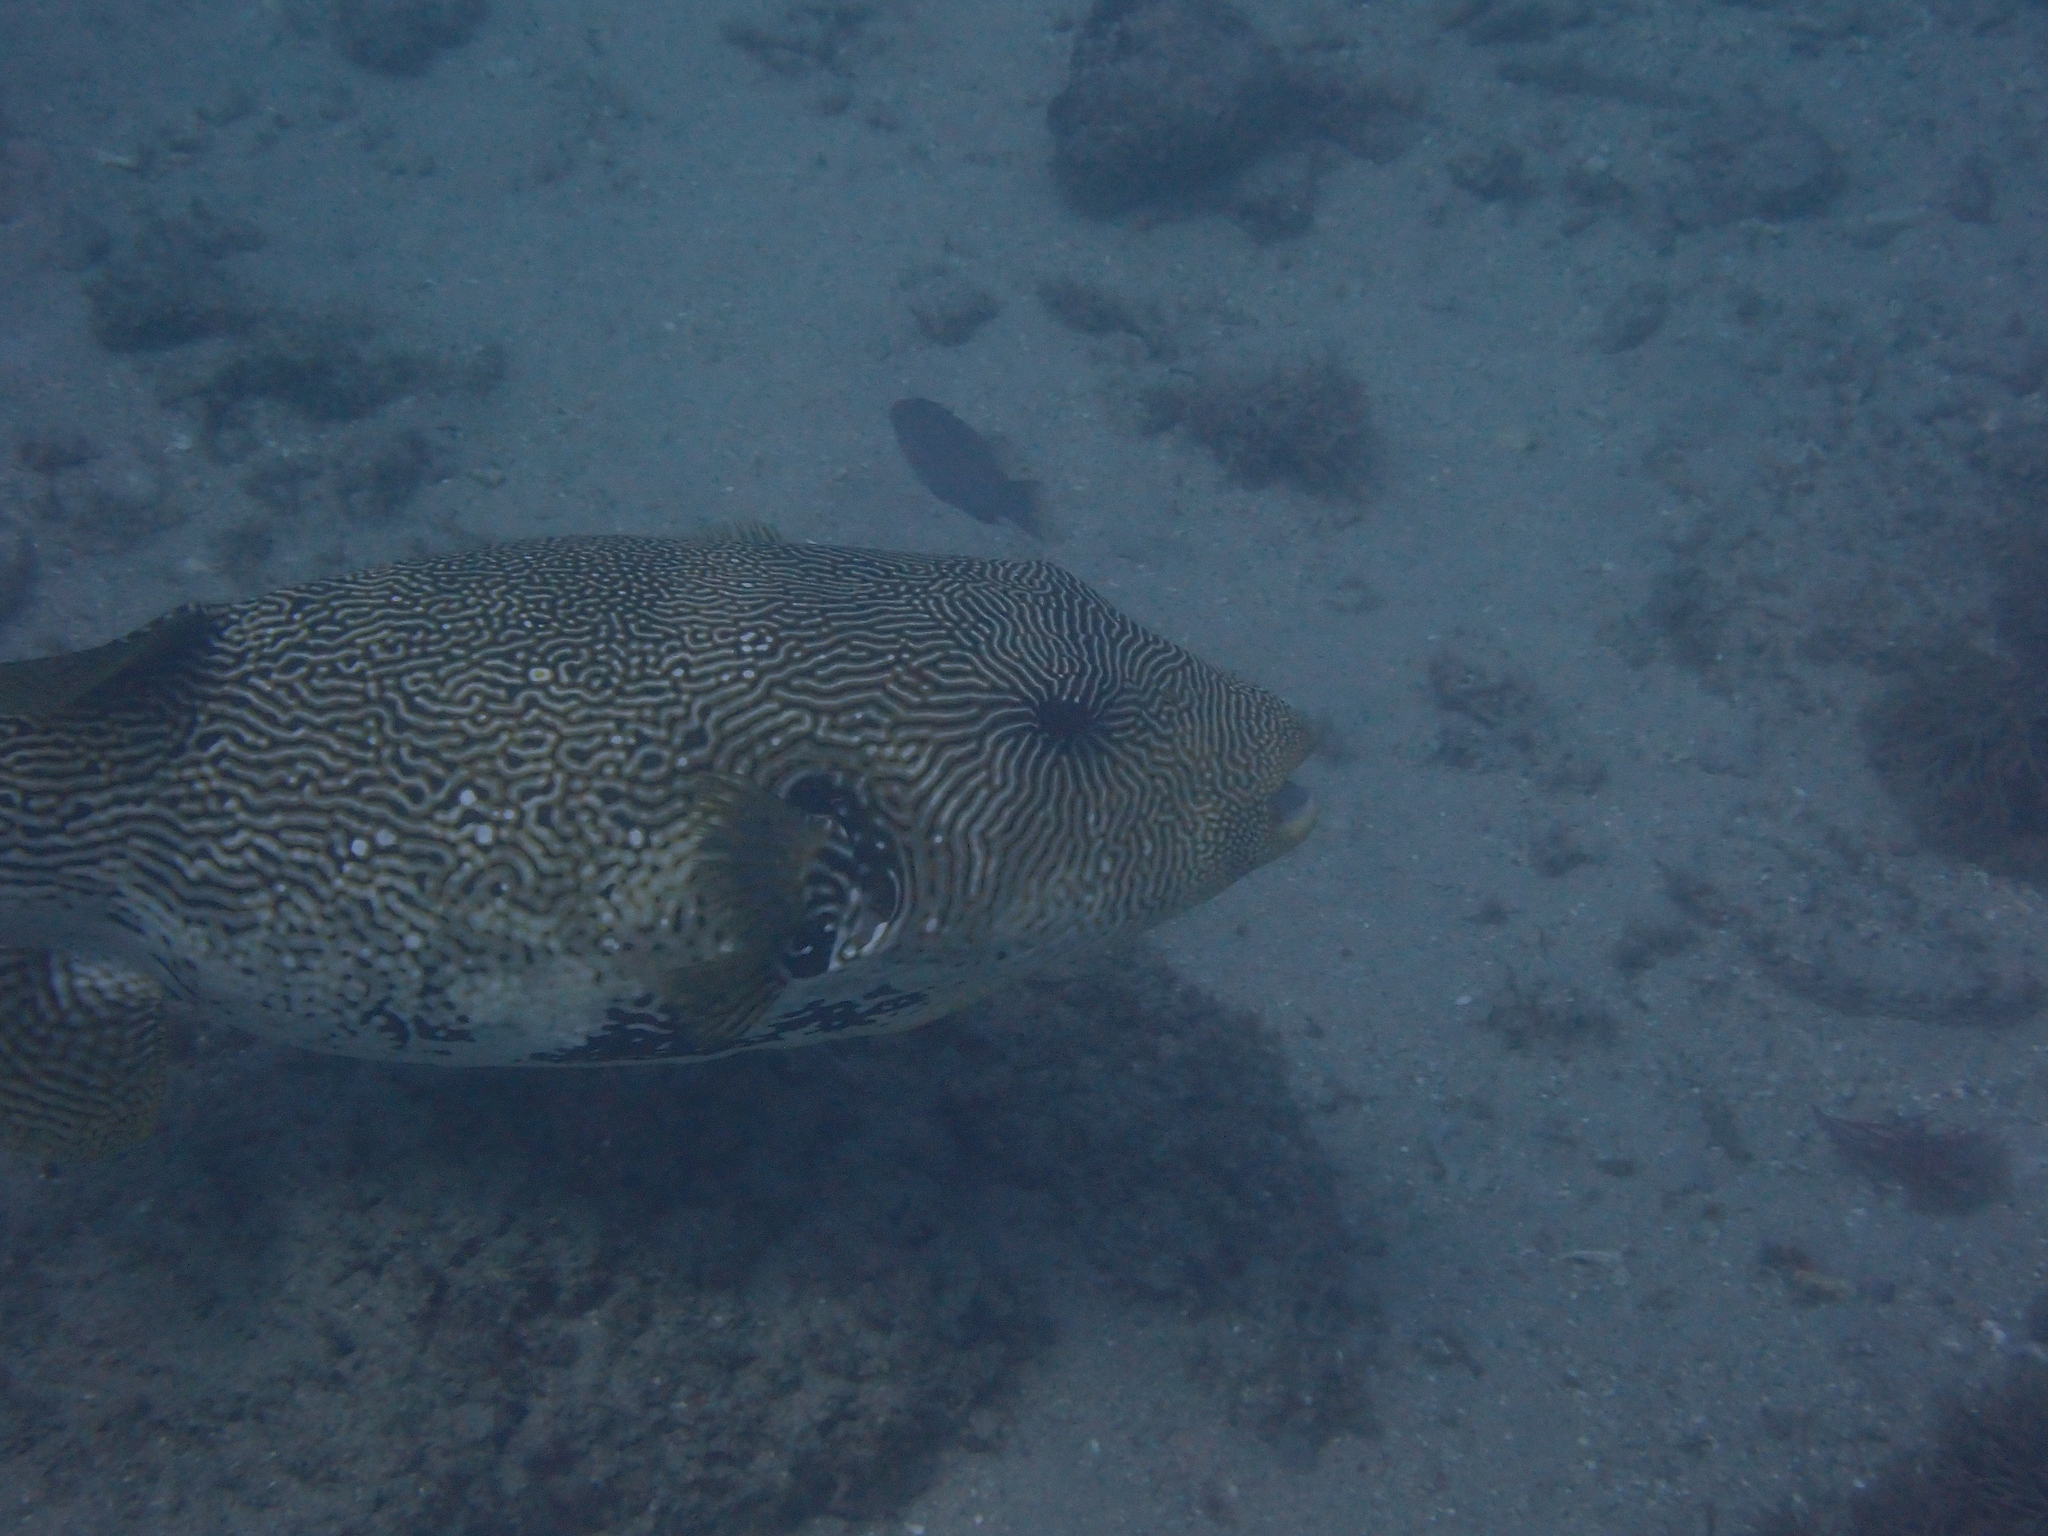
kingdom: Animalia
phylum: Chordata
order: Tetraodontiformes
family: Tetraodontidae
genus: Arothron
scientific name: Arothron mappa
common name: Map blaasop
